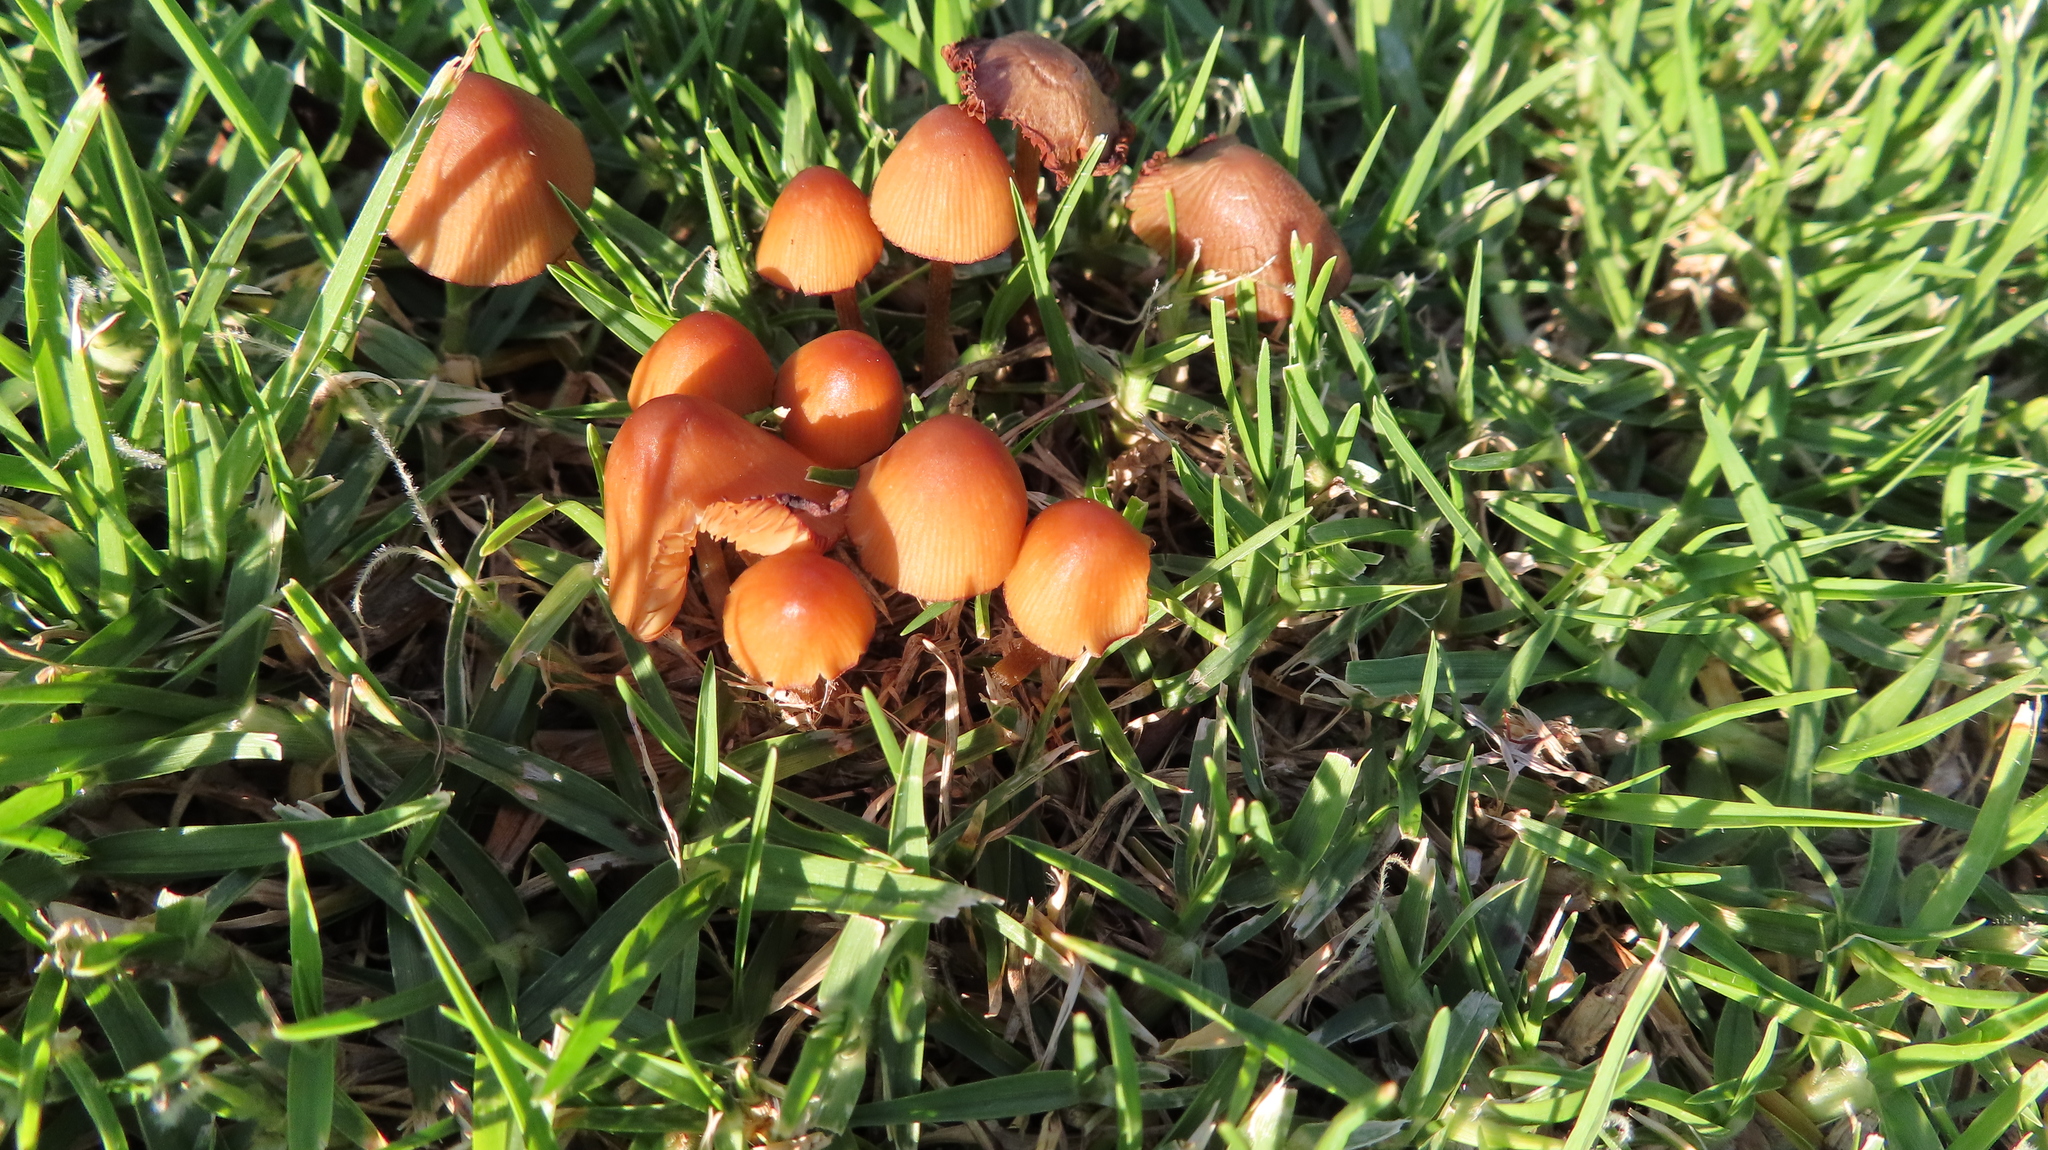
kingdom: Fungi
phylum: Basidiomycota
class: Agaricomycetes
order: Agaricales
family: Bolbitiaceae
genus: Conocybe
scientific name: Conocybe tenera
